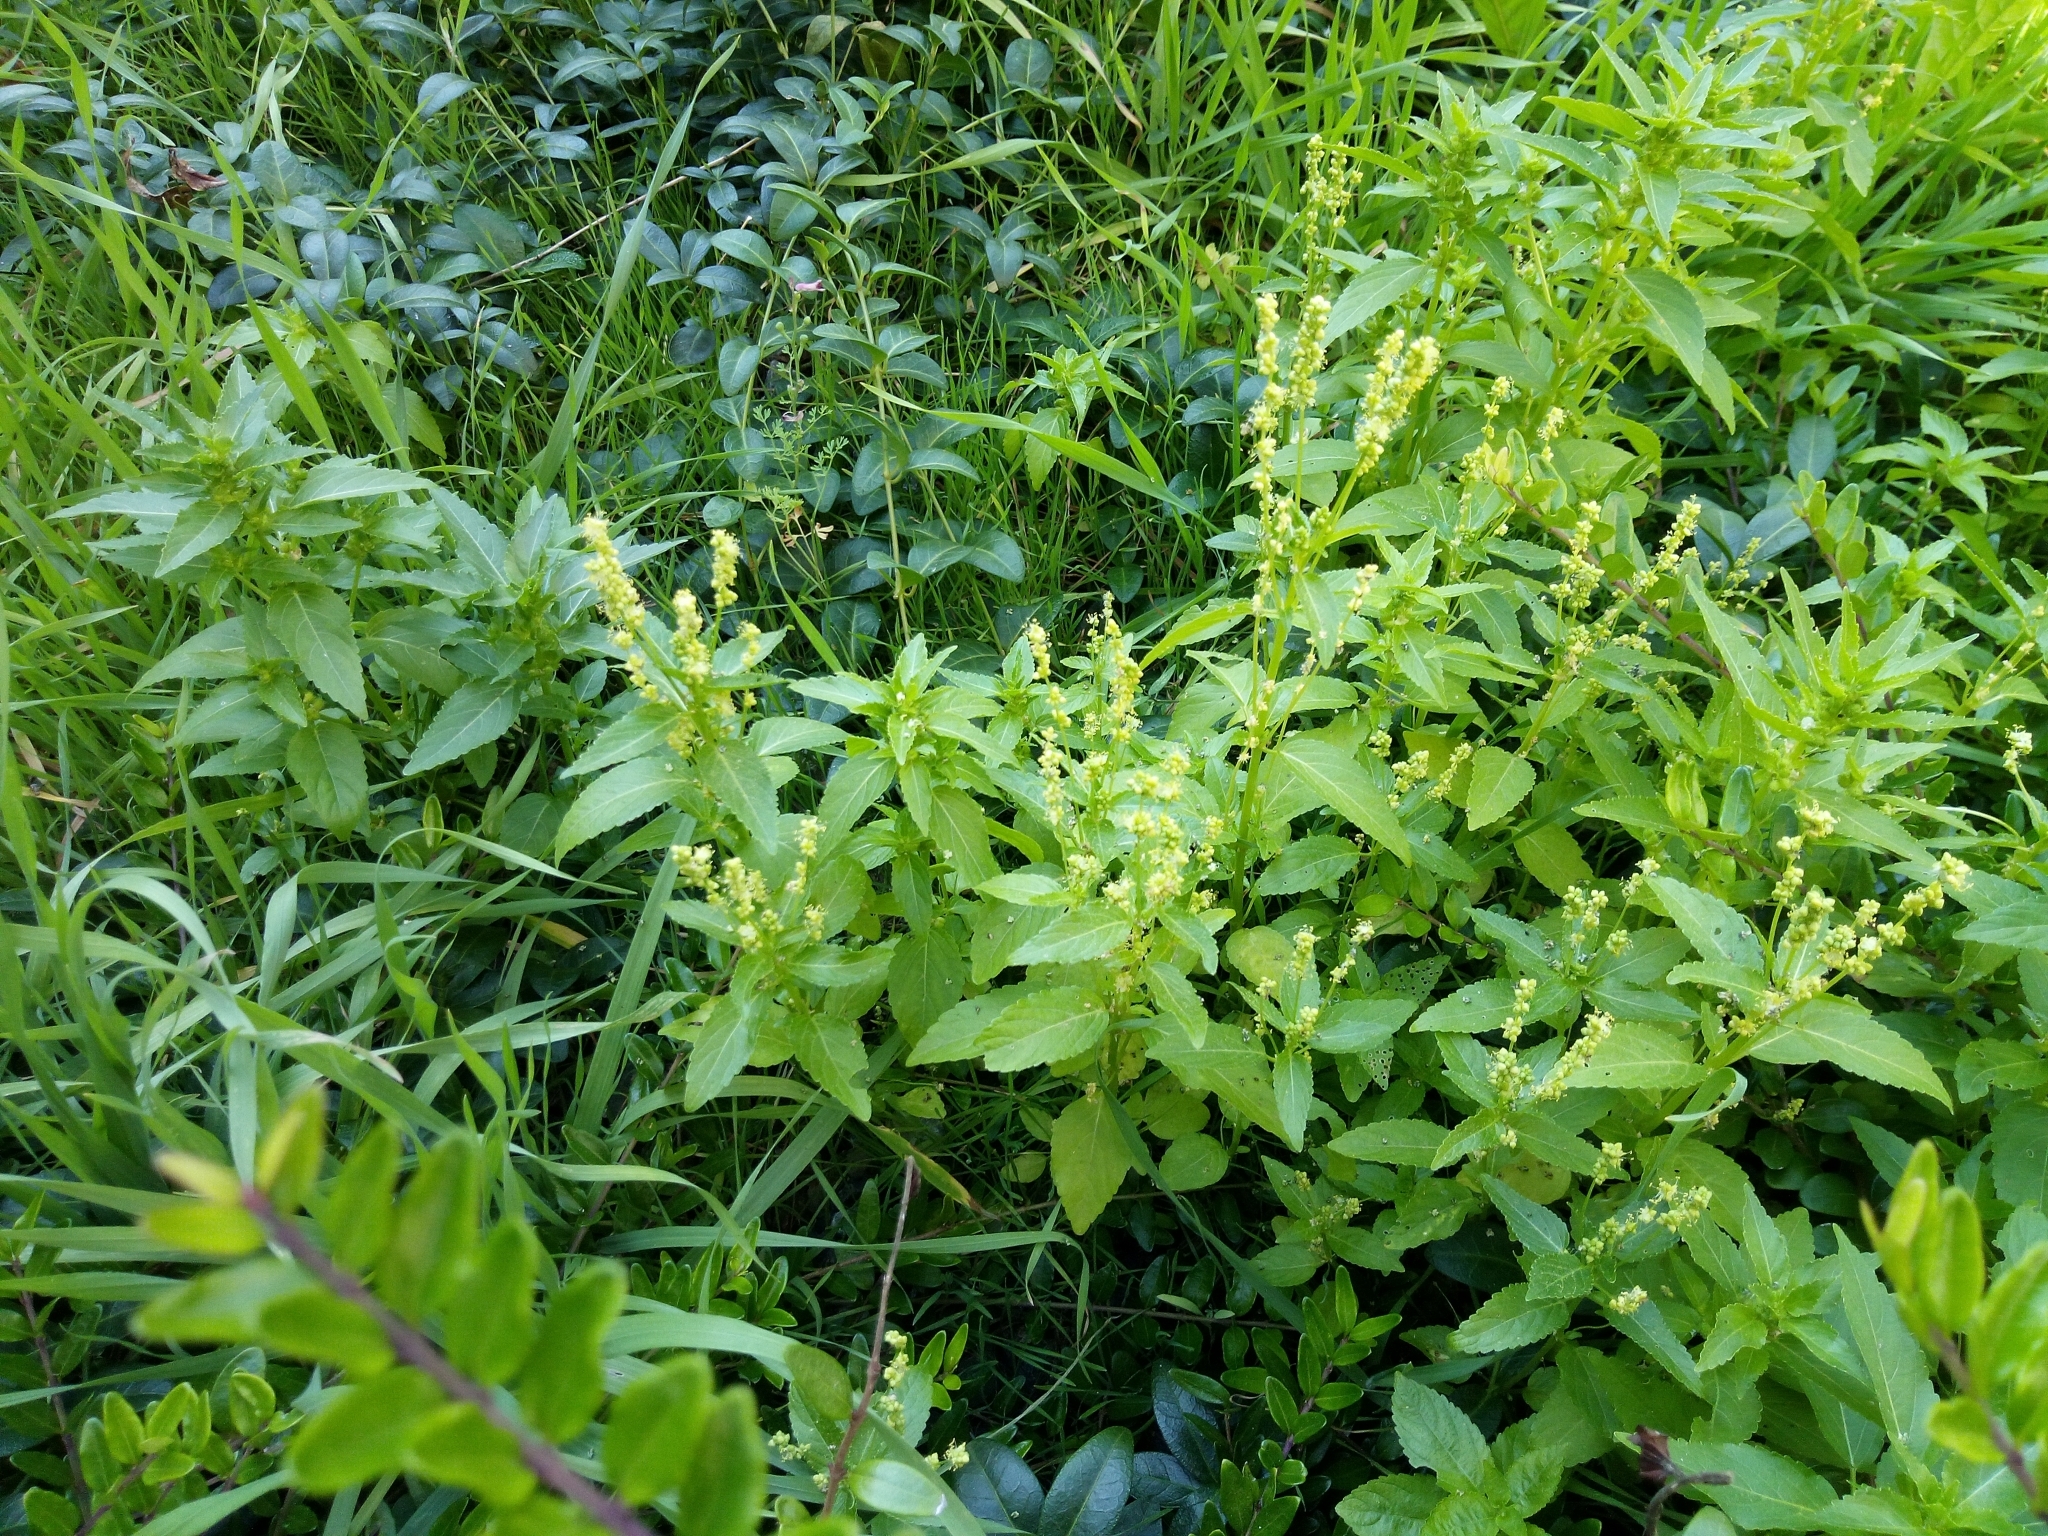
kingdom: Plantae
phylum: Tracheophyta
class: Magnoliopsida
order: Malpighiales
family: Euphorbiaceae
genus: Mercurialis
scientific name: Mercurialis annua
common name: Annual mercury
